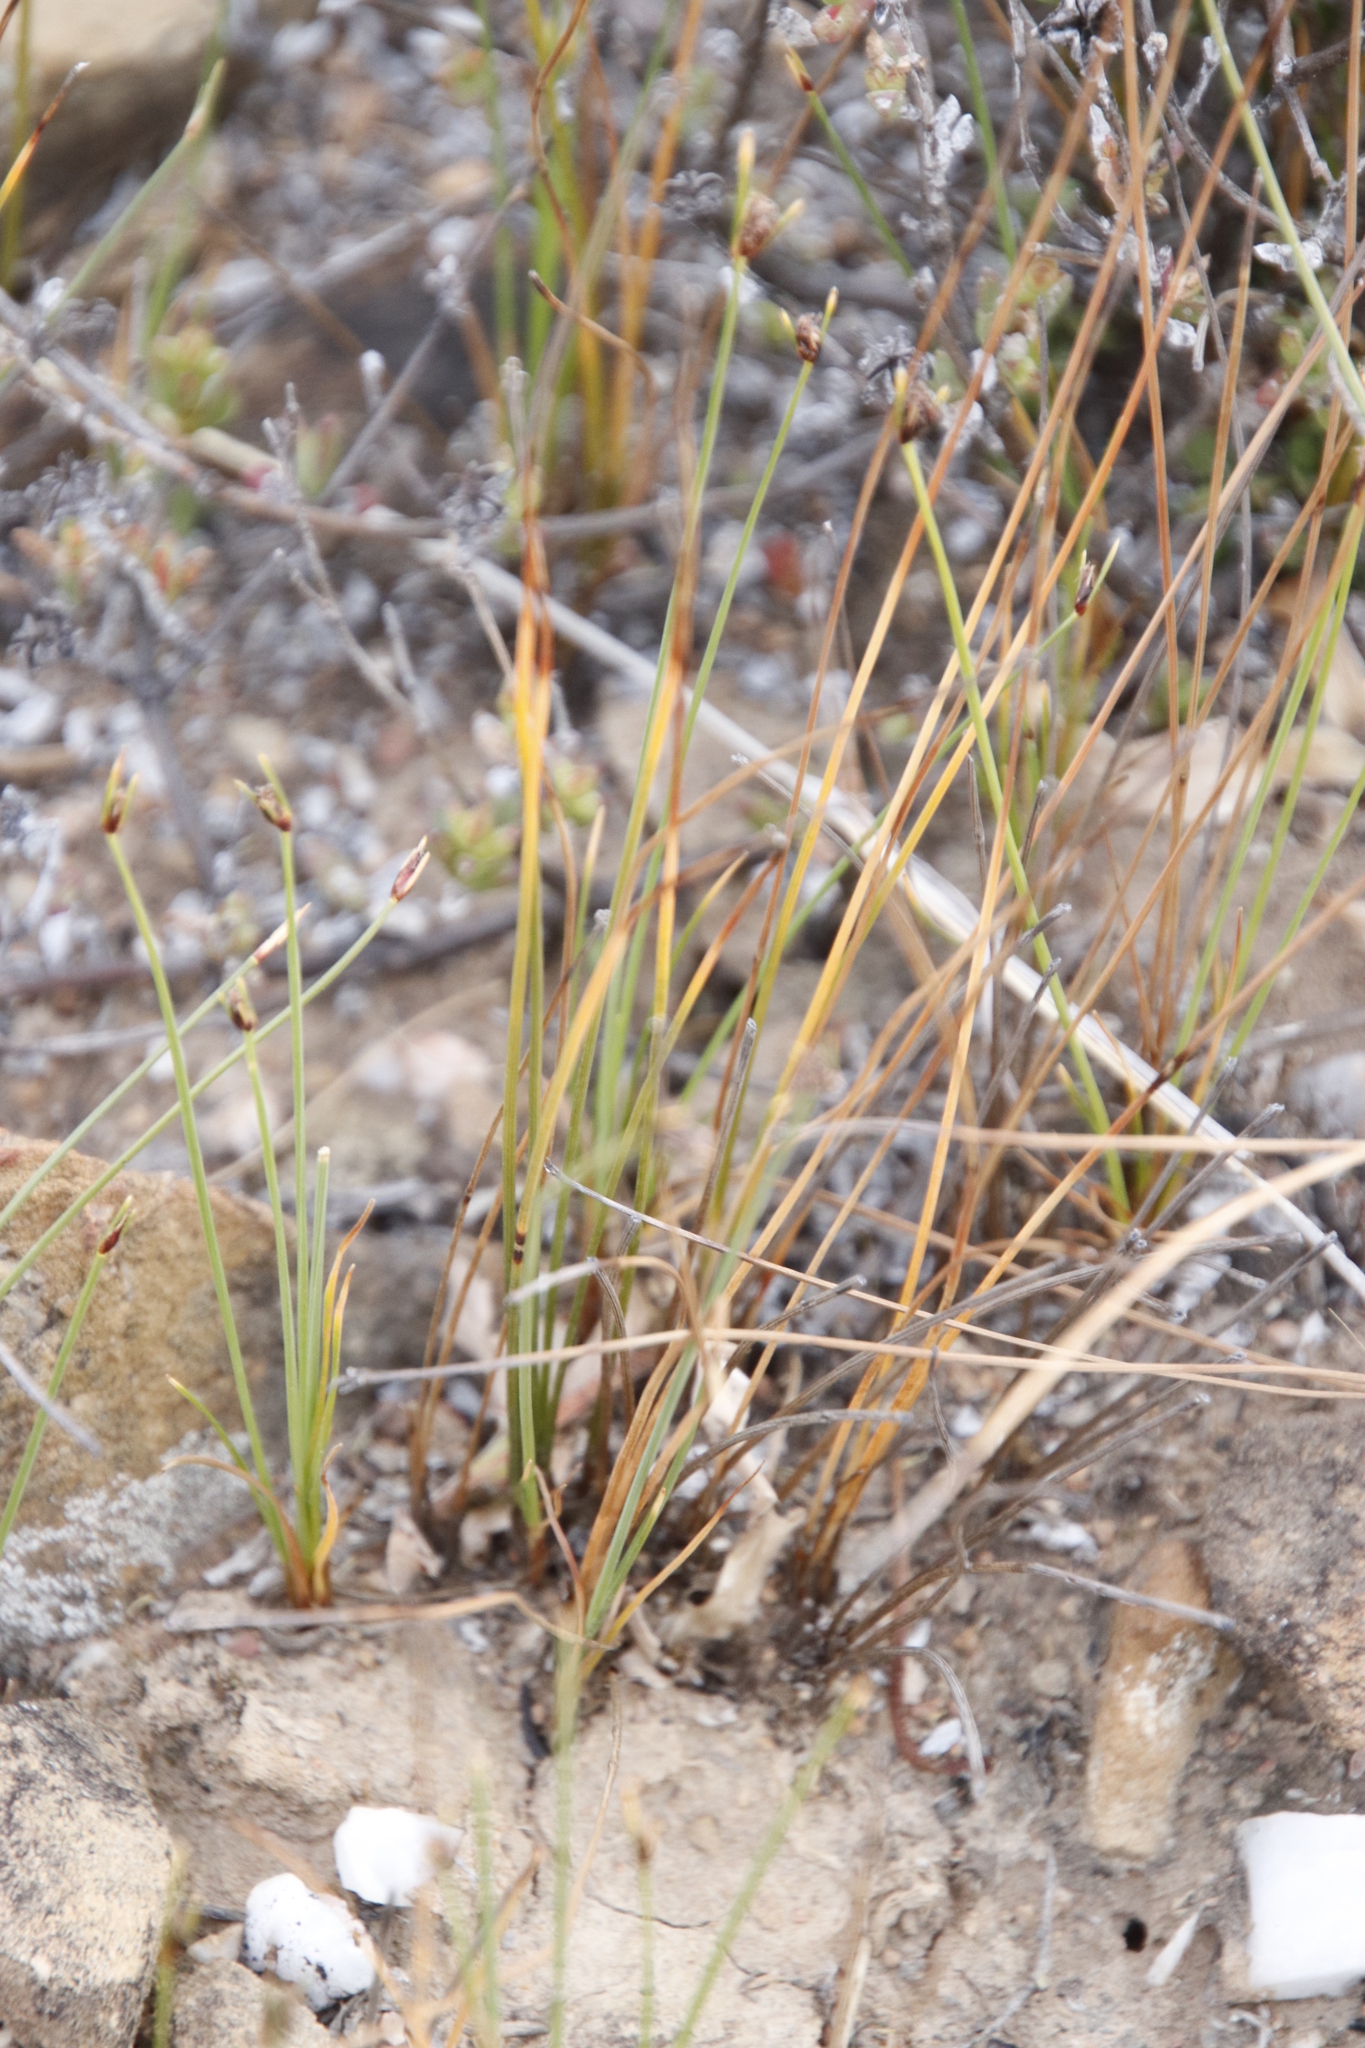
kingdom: Plantae
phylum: Tracheophyta
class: Liliopsida
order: Poales
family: Cyperaceae
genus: Ficinia
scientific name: Ficinia nigrescens
